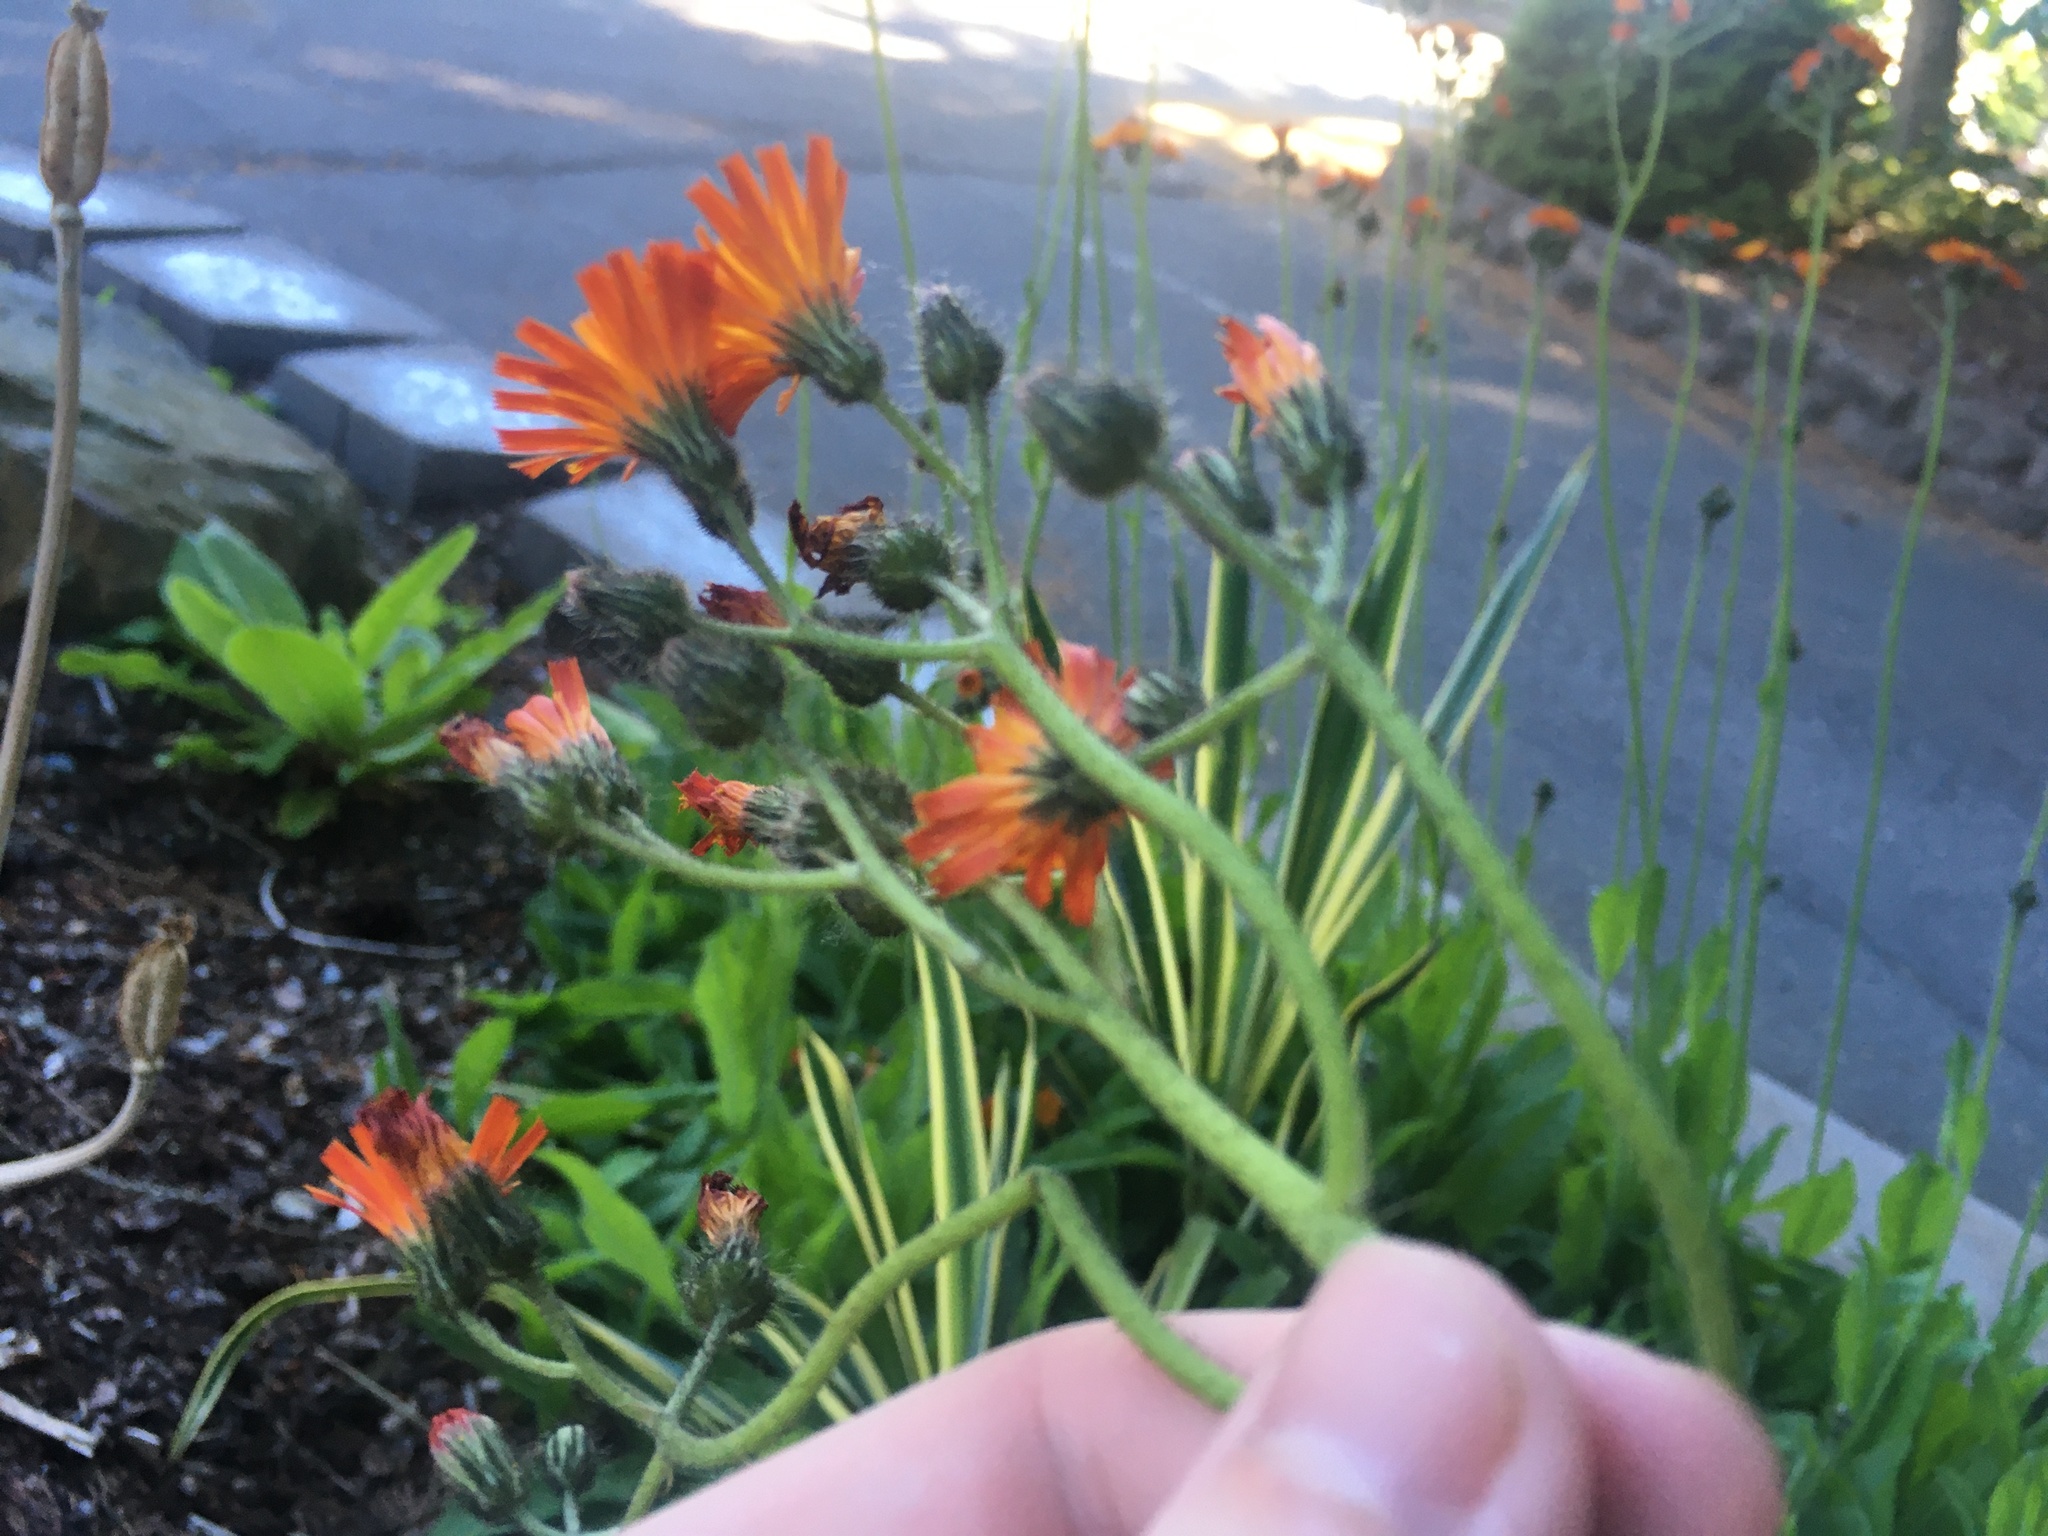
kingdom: Plantae
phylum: Tracheophyta
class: Magnoliopsida
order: Asterales
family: Asteraceae
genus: Pilosella
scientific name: Pilosella aurantiaca
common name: Fox-and-cubs
